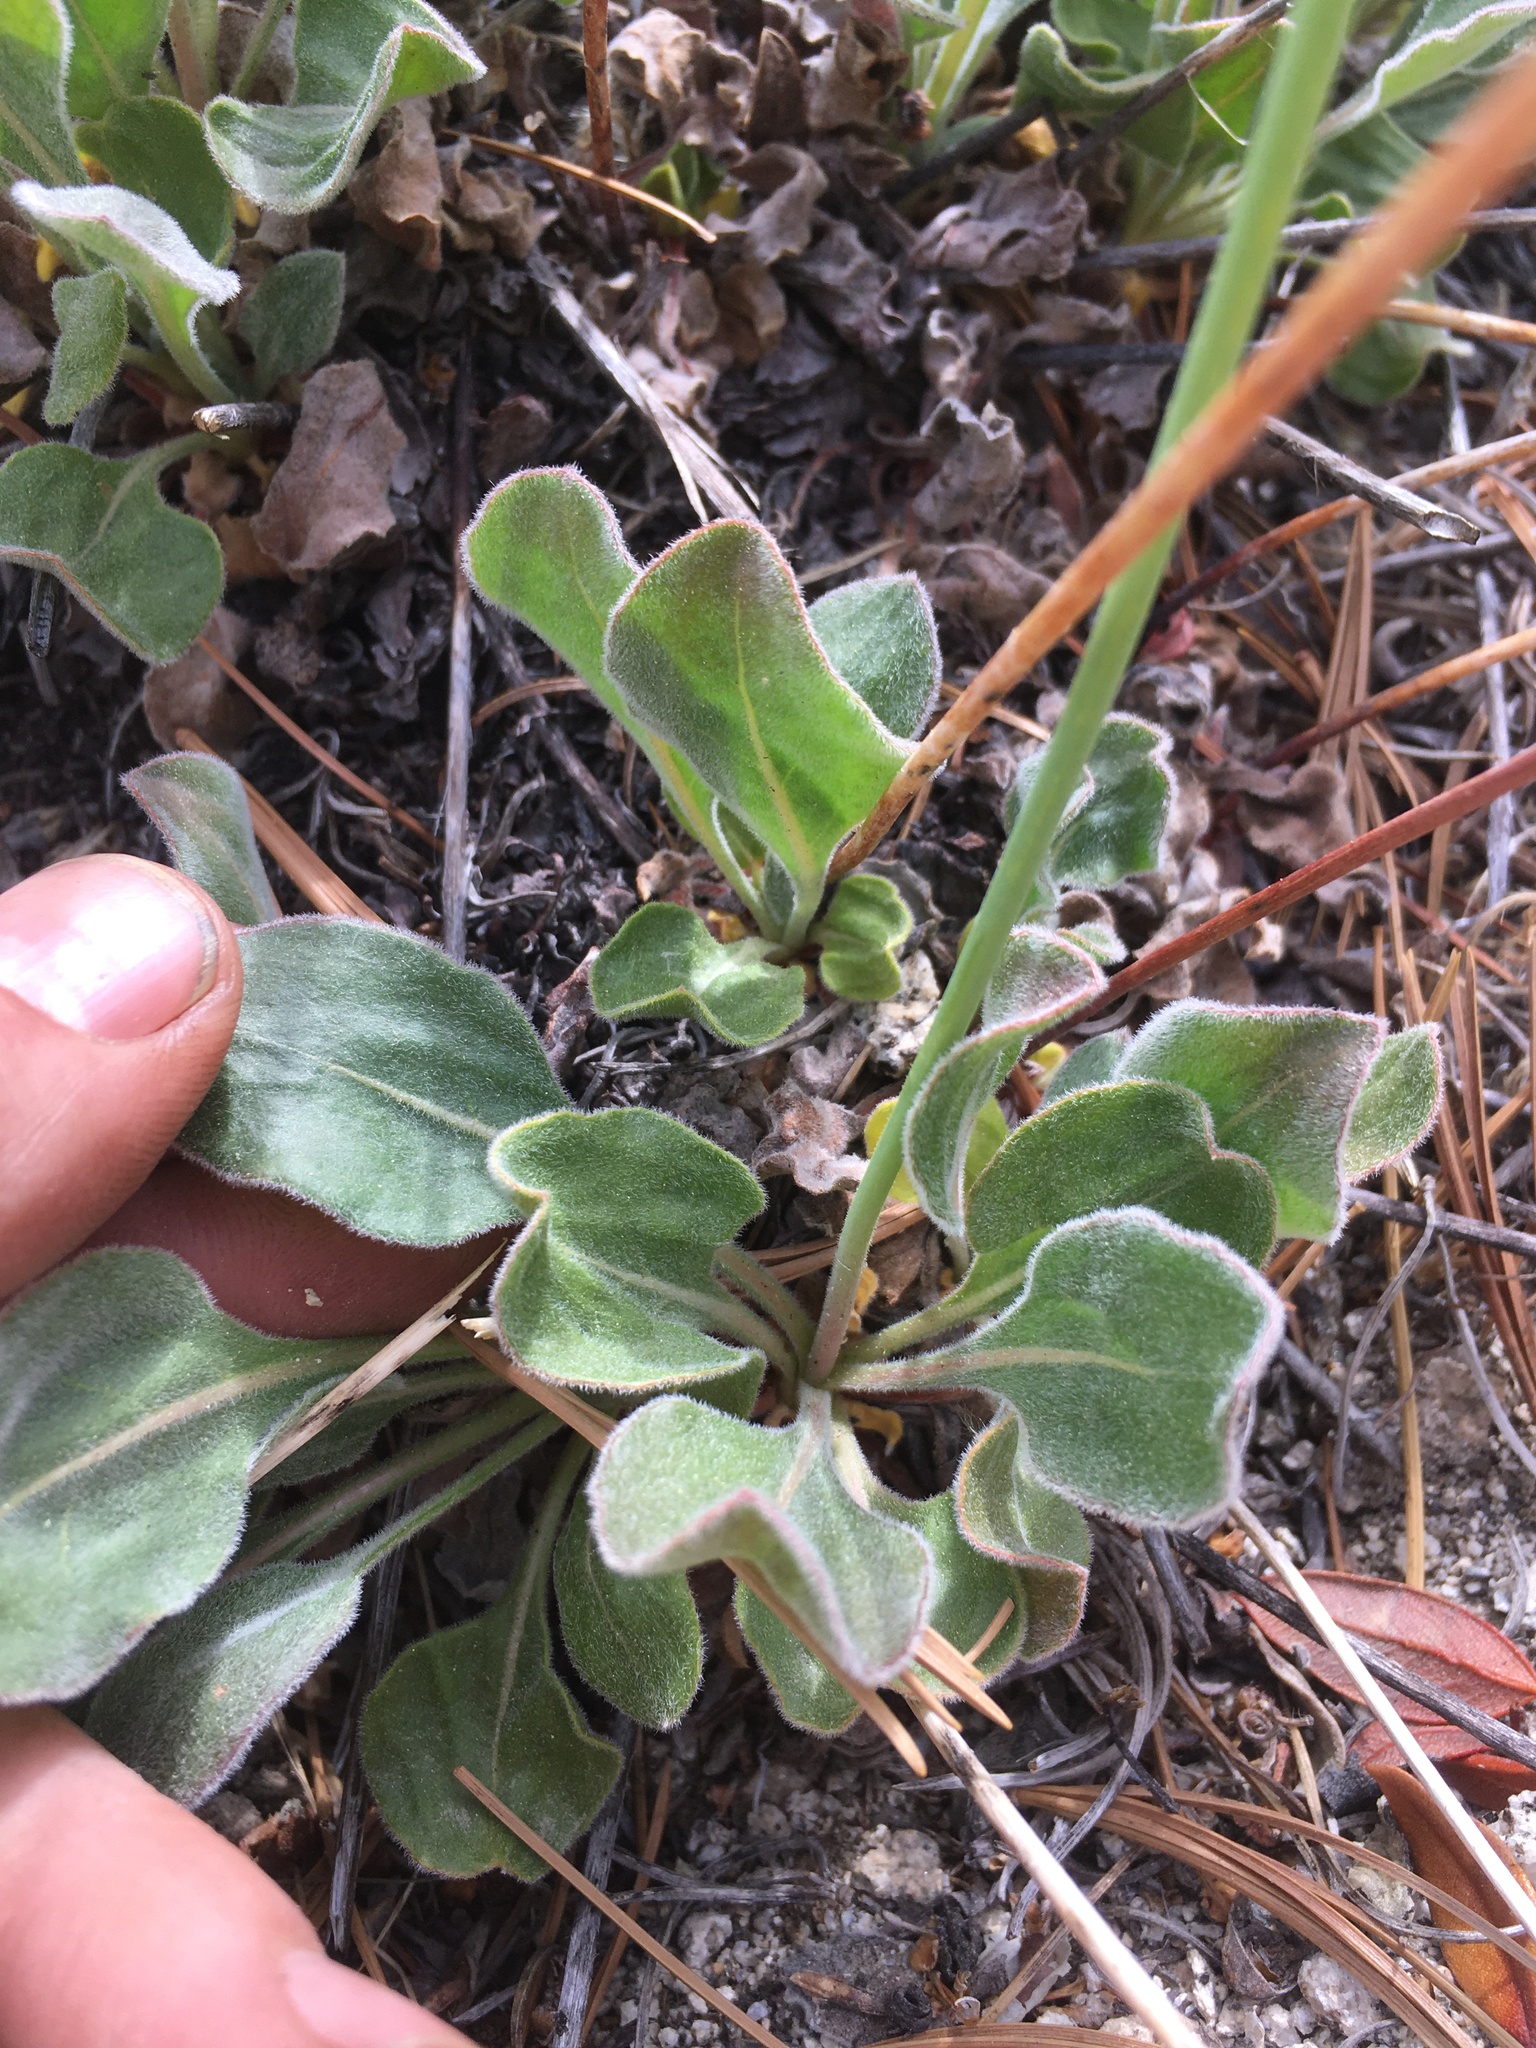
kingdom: Plantae
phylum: Tracheophyta
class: Magnoliopsida
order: Caryophyllales
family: Polygonaceae
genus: Eriogonum
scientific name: Eriogonum latens
